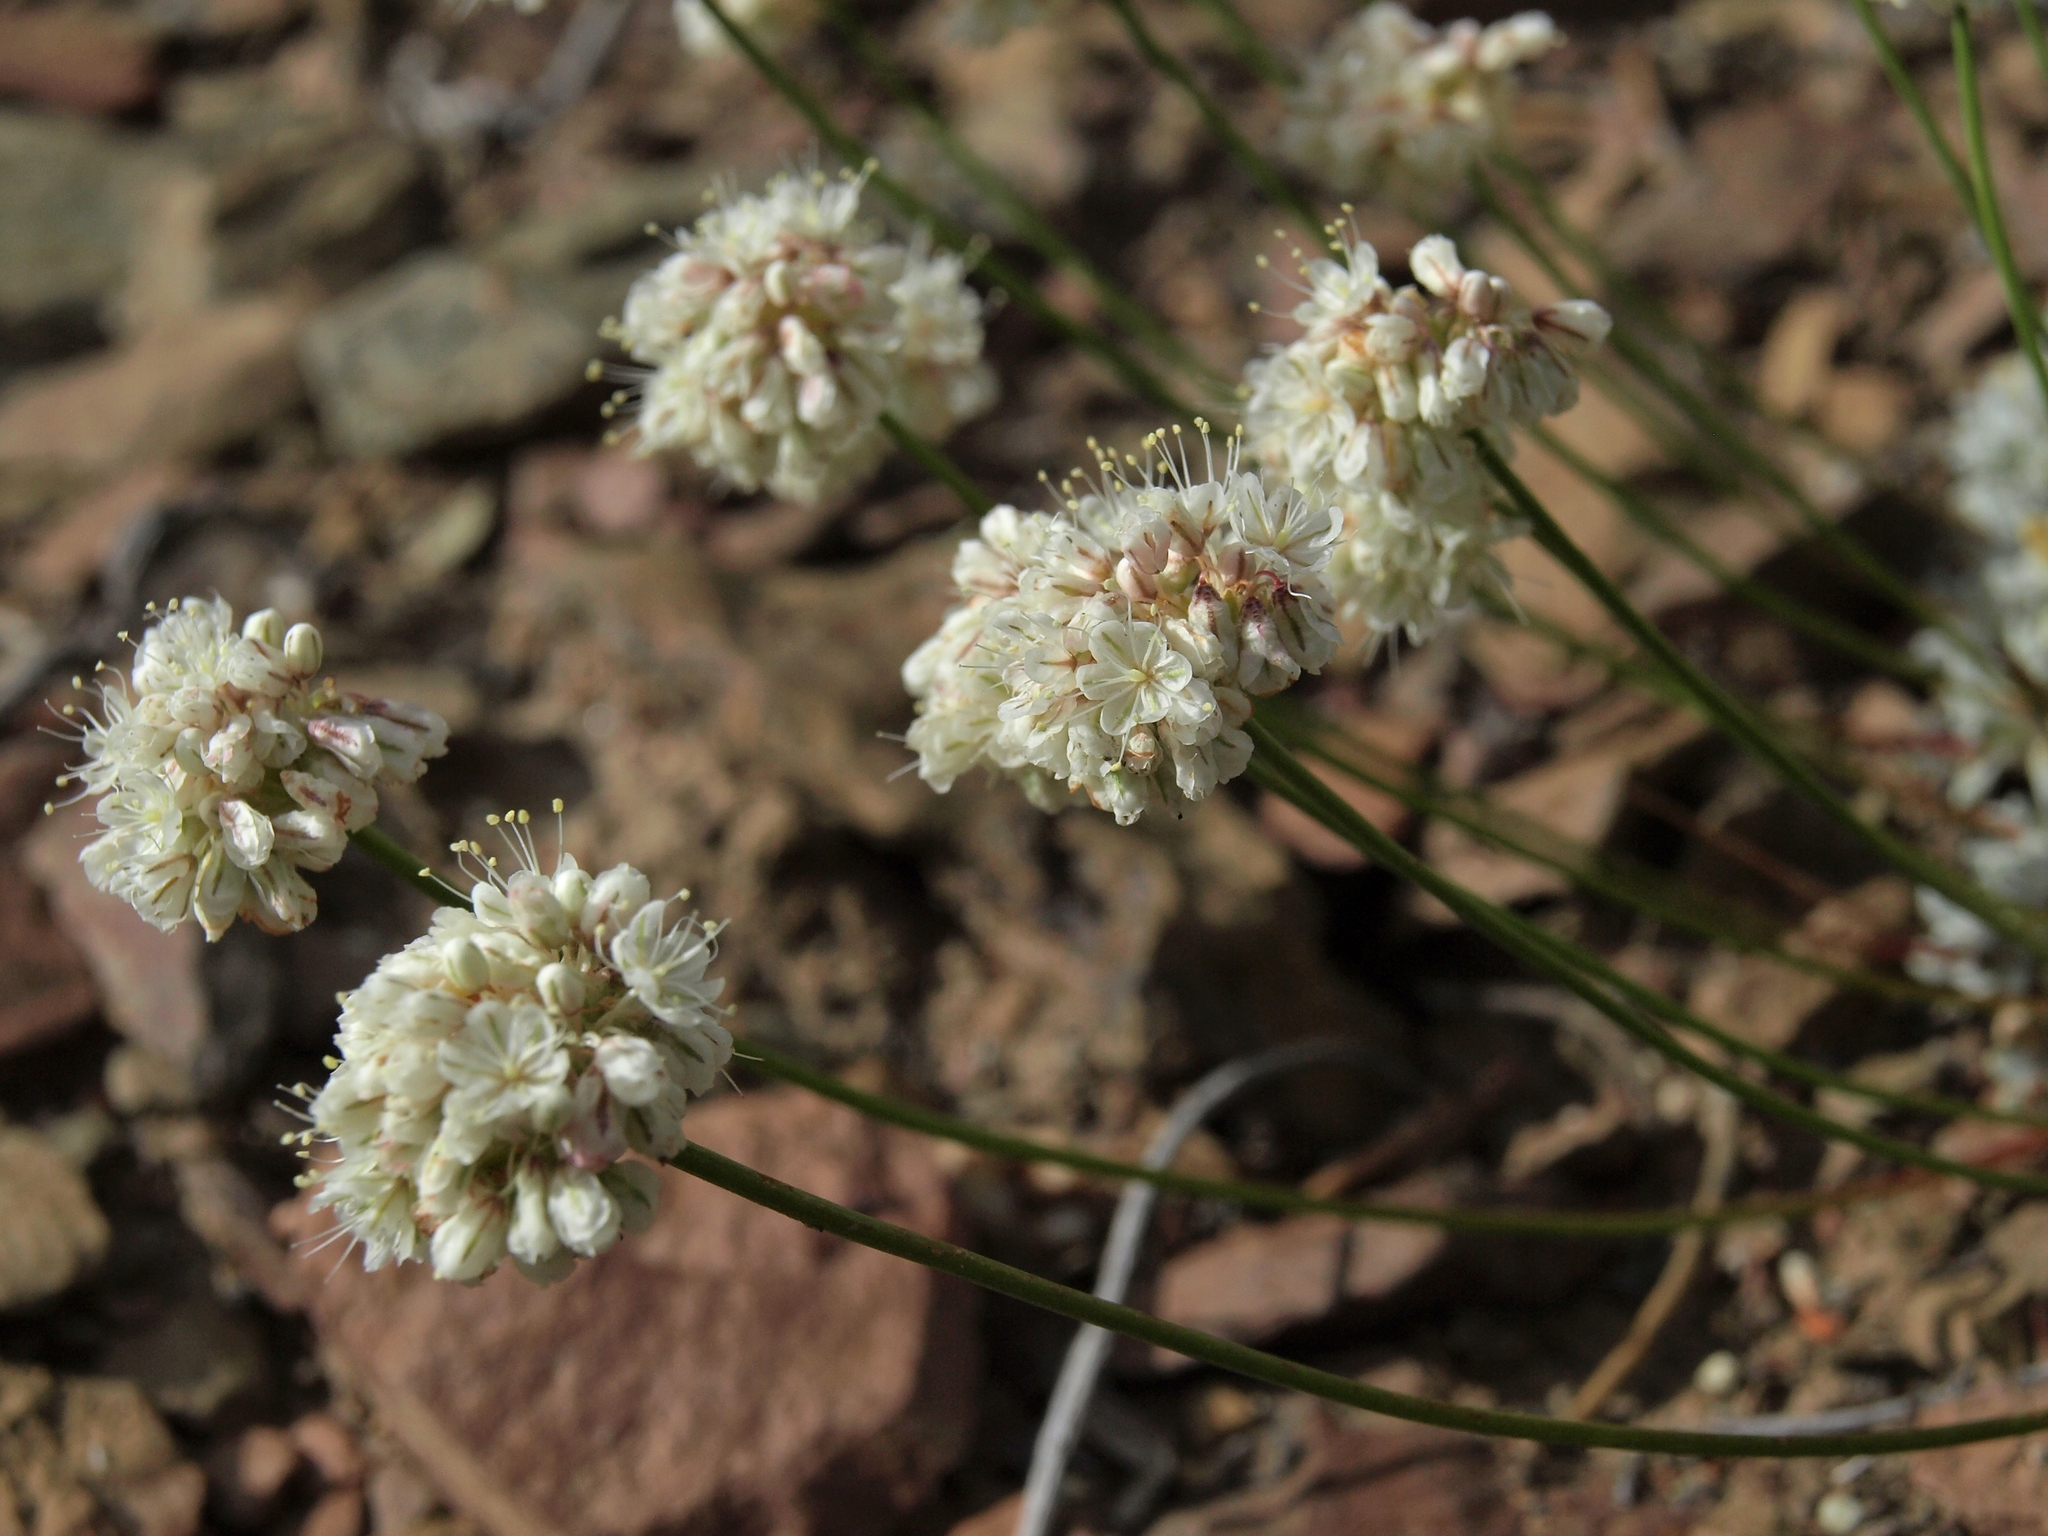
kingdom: Plantae
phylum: Tracheophyta
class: Magnoliopsida
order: Caryophyllales
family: Polygonaceae
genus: Eriogonum
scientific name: Eriogonum kennedyi
